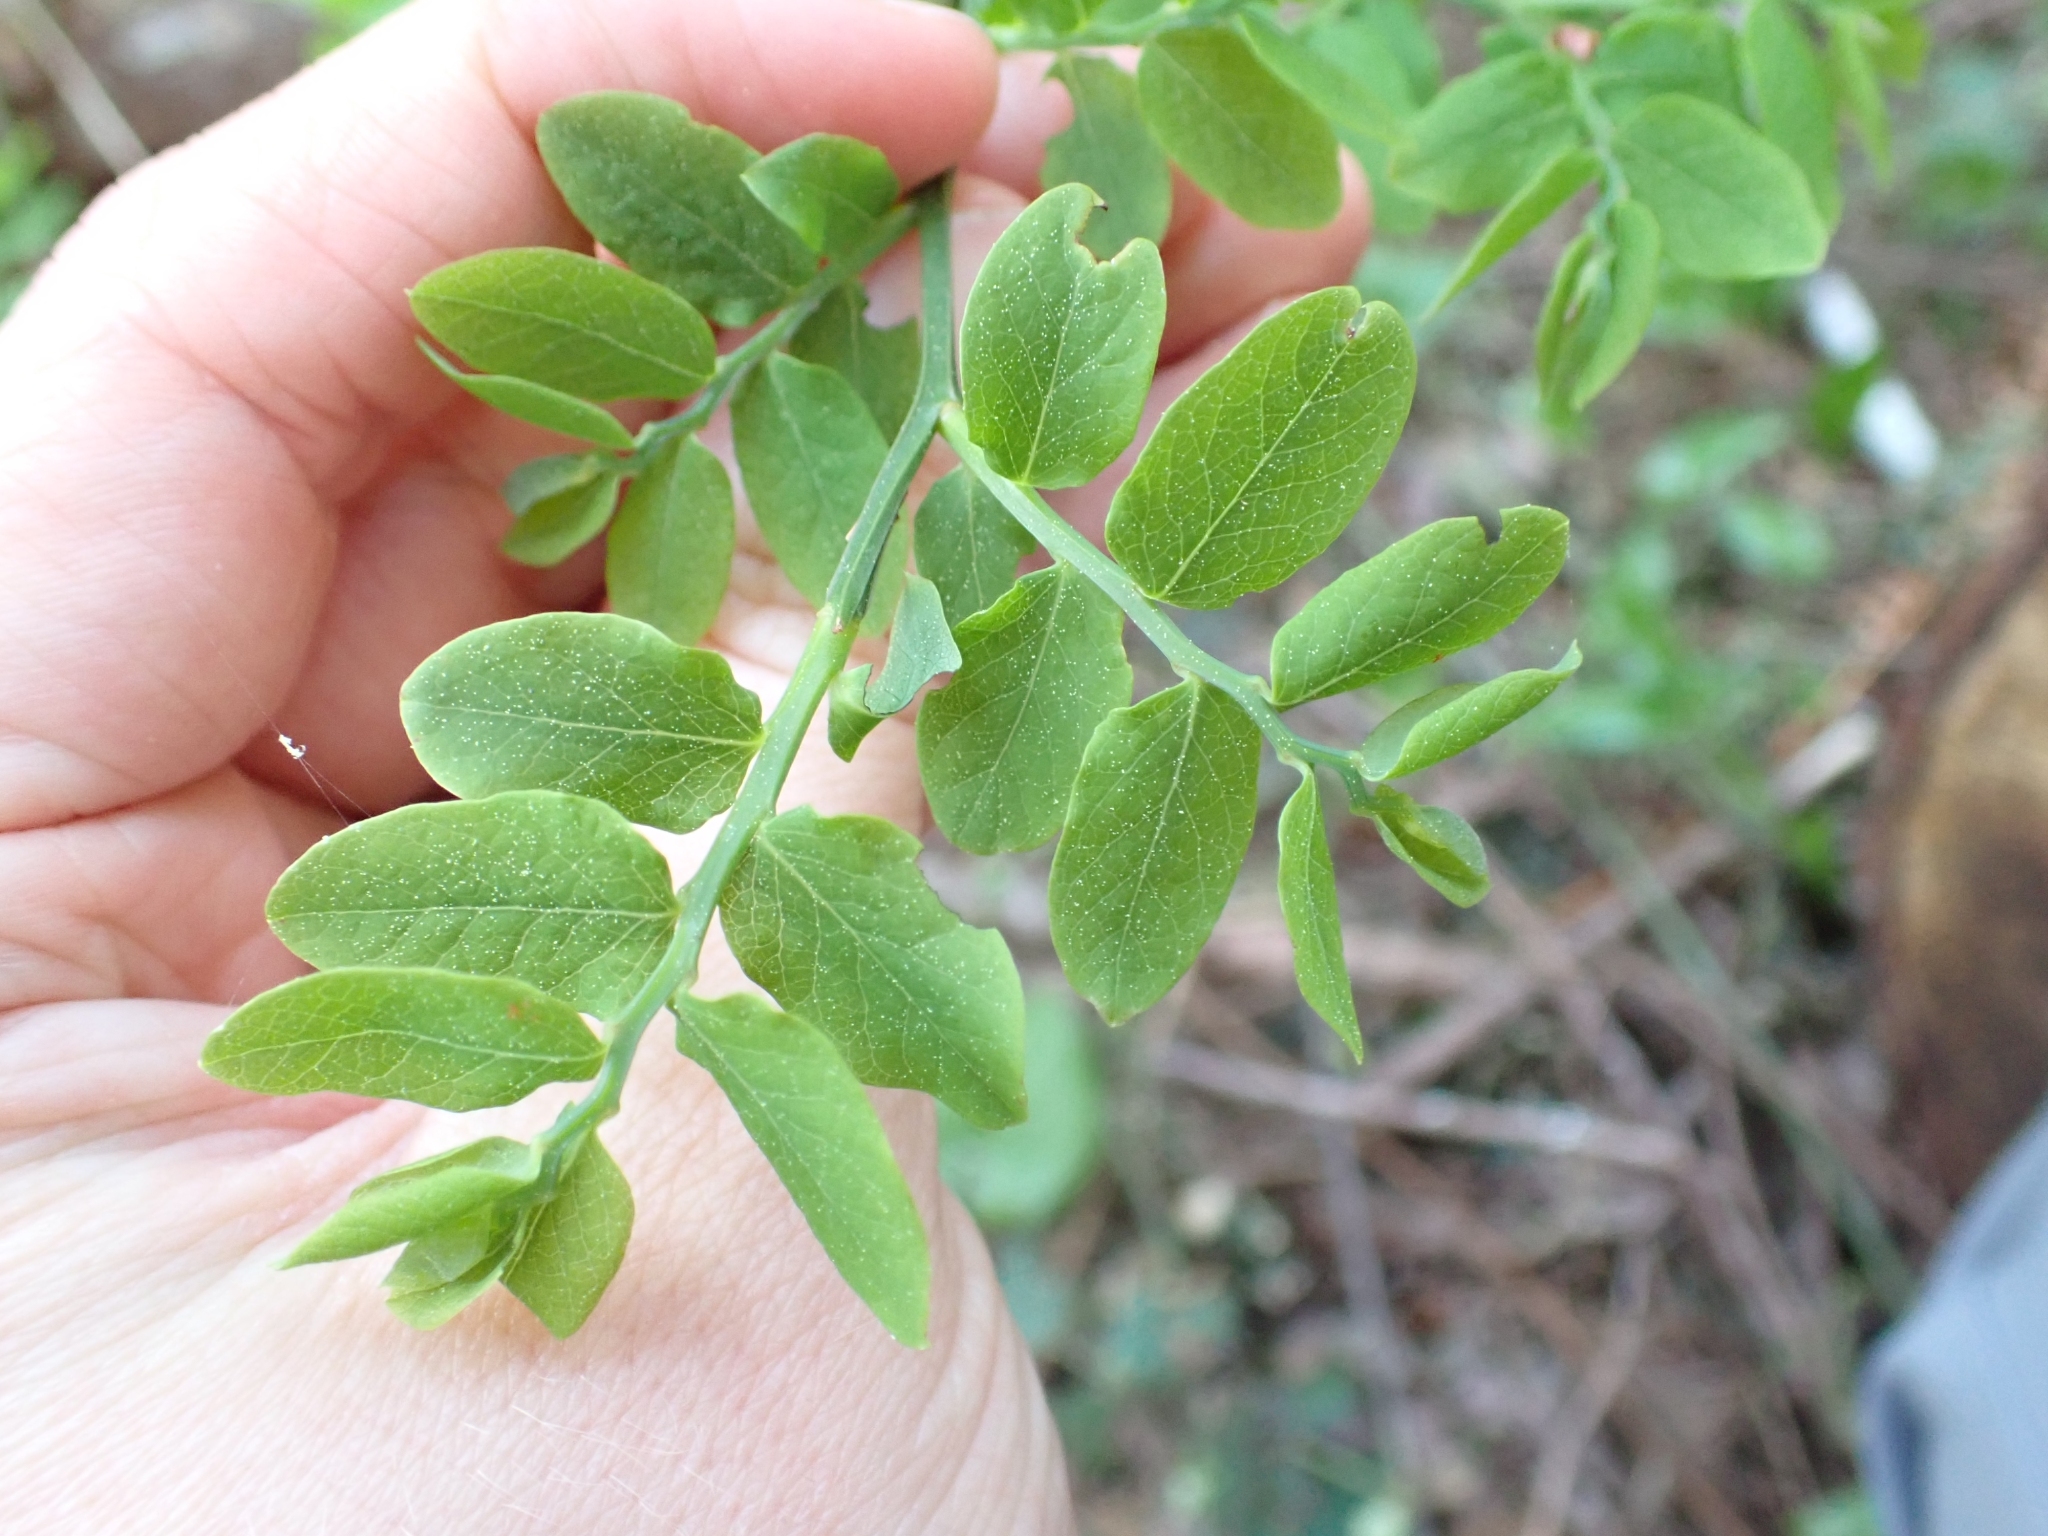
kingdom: Plantae
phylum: Tracheophyta
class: Magnoliopsida
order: Ericales
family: Ericaceae
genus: Vaccinium
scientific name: Vaccinium parvifolium
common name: Red-huckleberry
